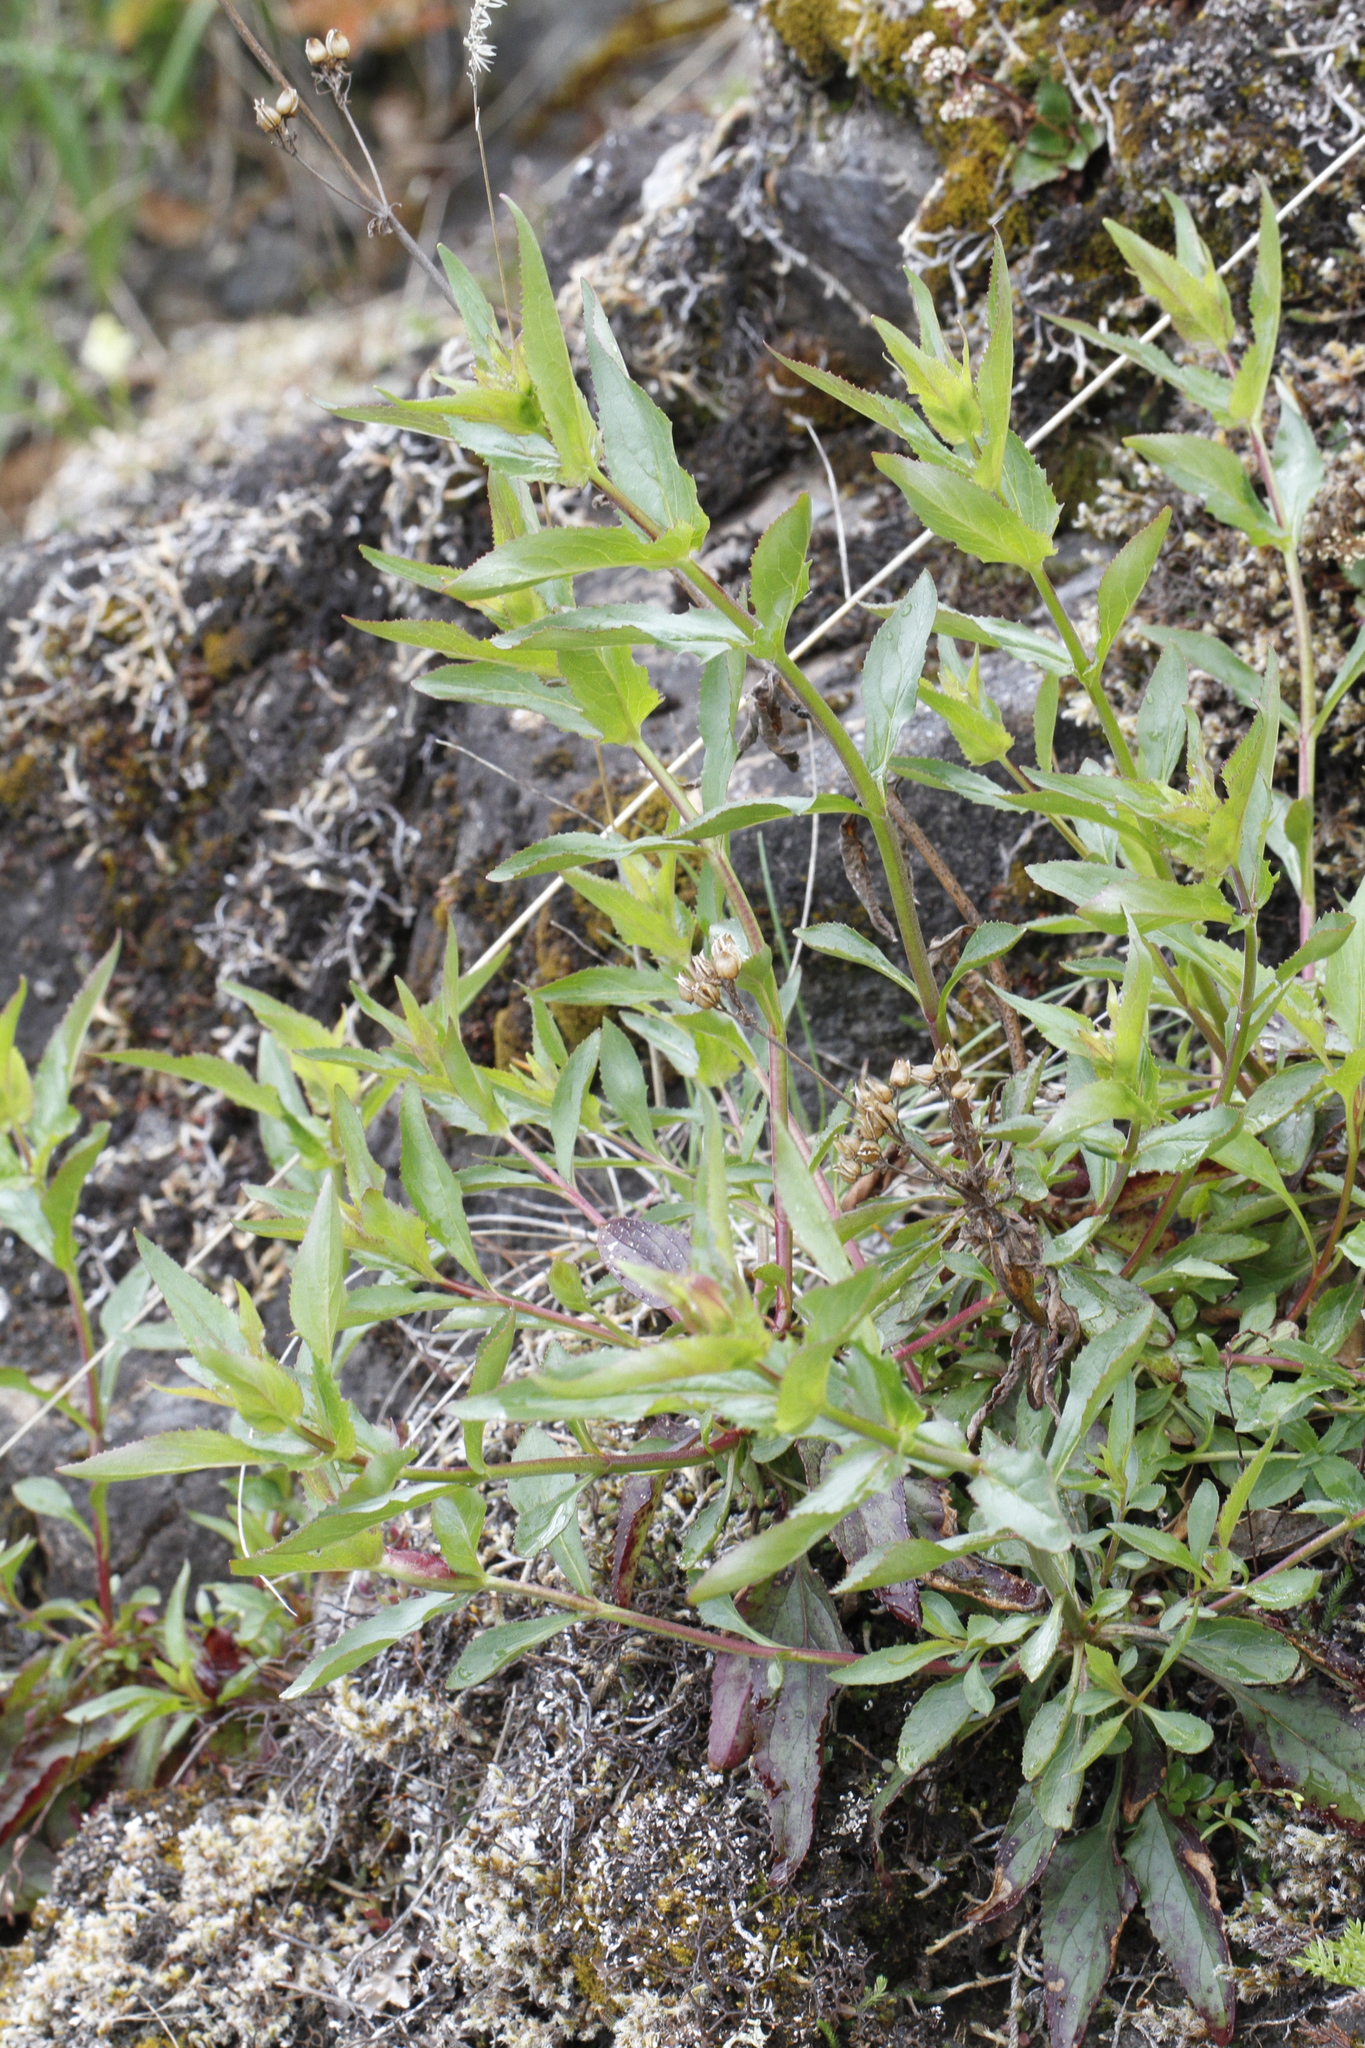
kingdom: Plantae
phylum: Tracheophyta
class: Magnoliopsida
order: Lamiales
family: Plantaginaceae
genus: Penstemon
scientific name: Penstemon serrulatus
